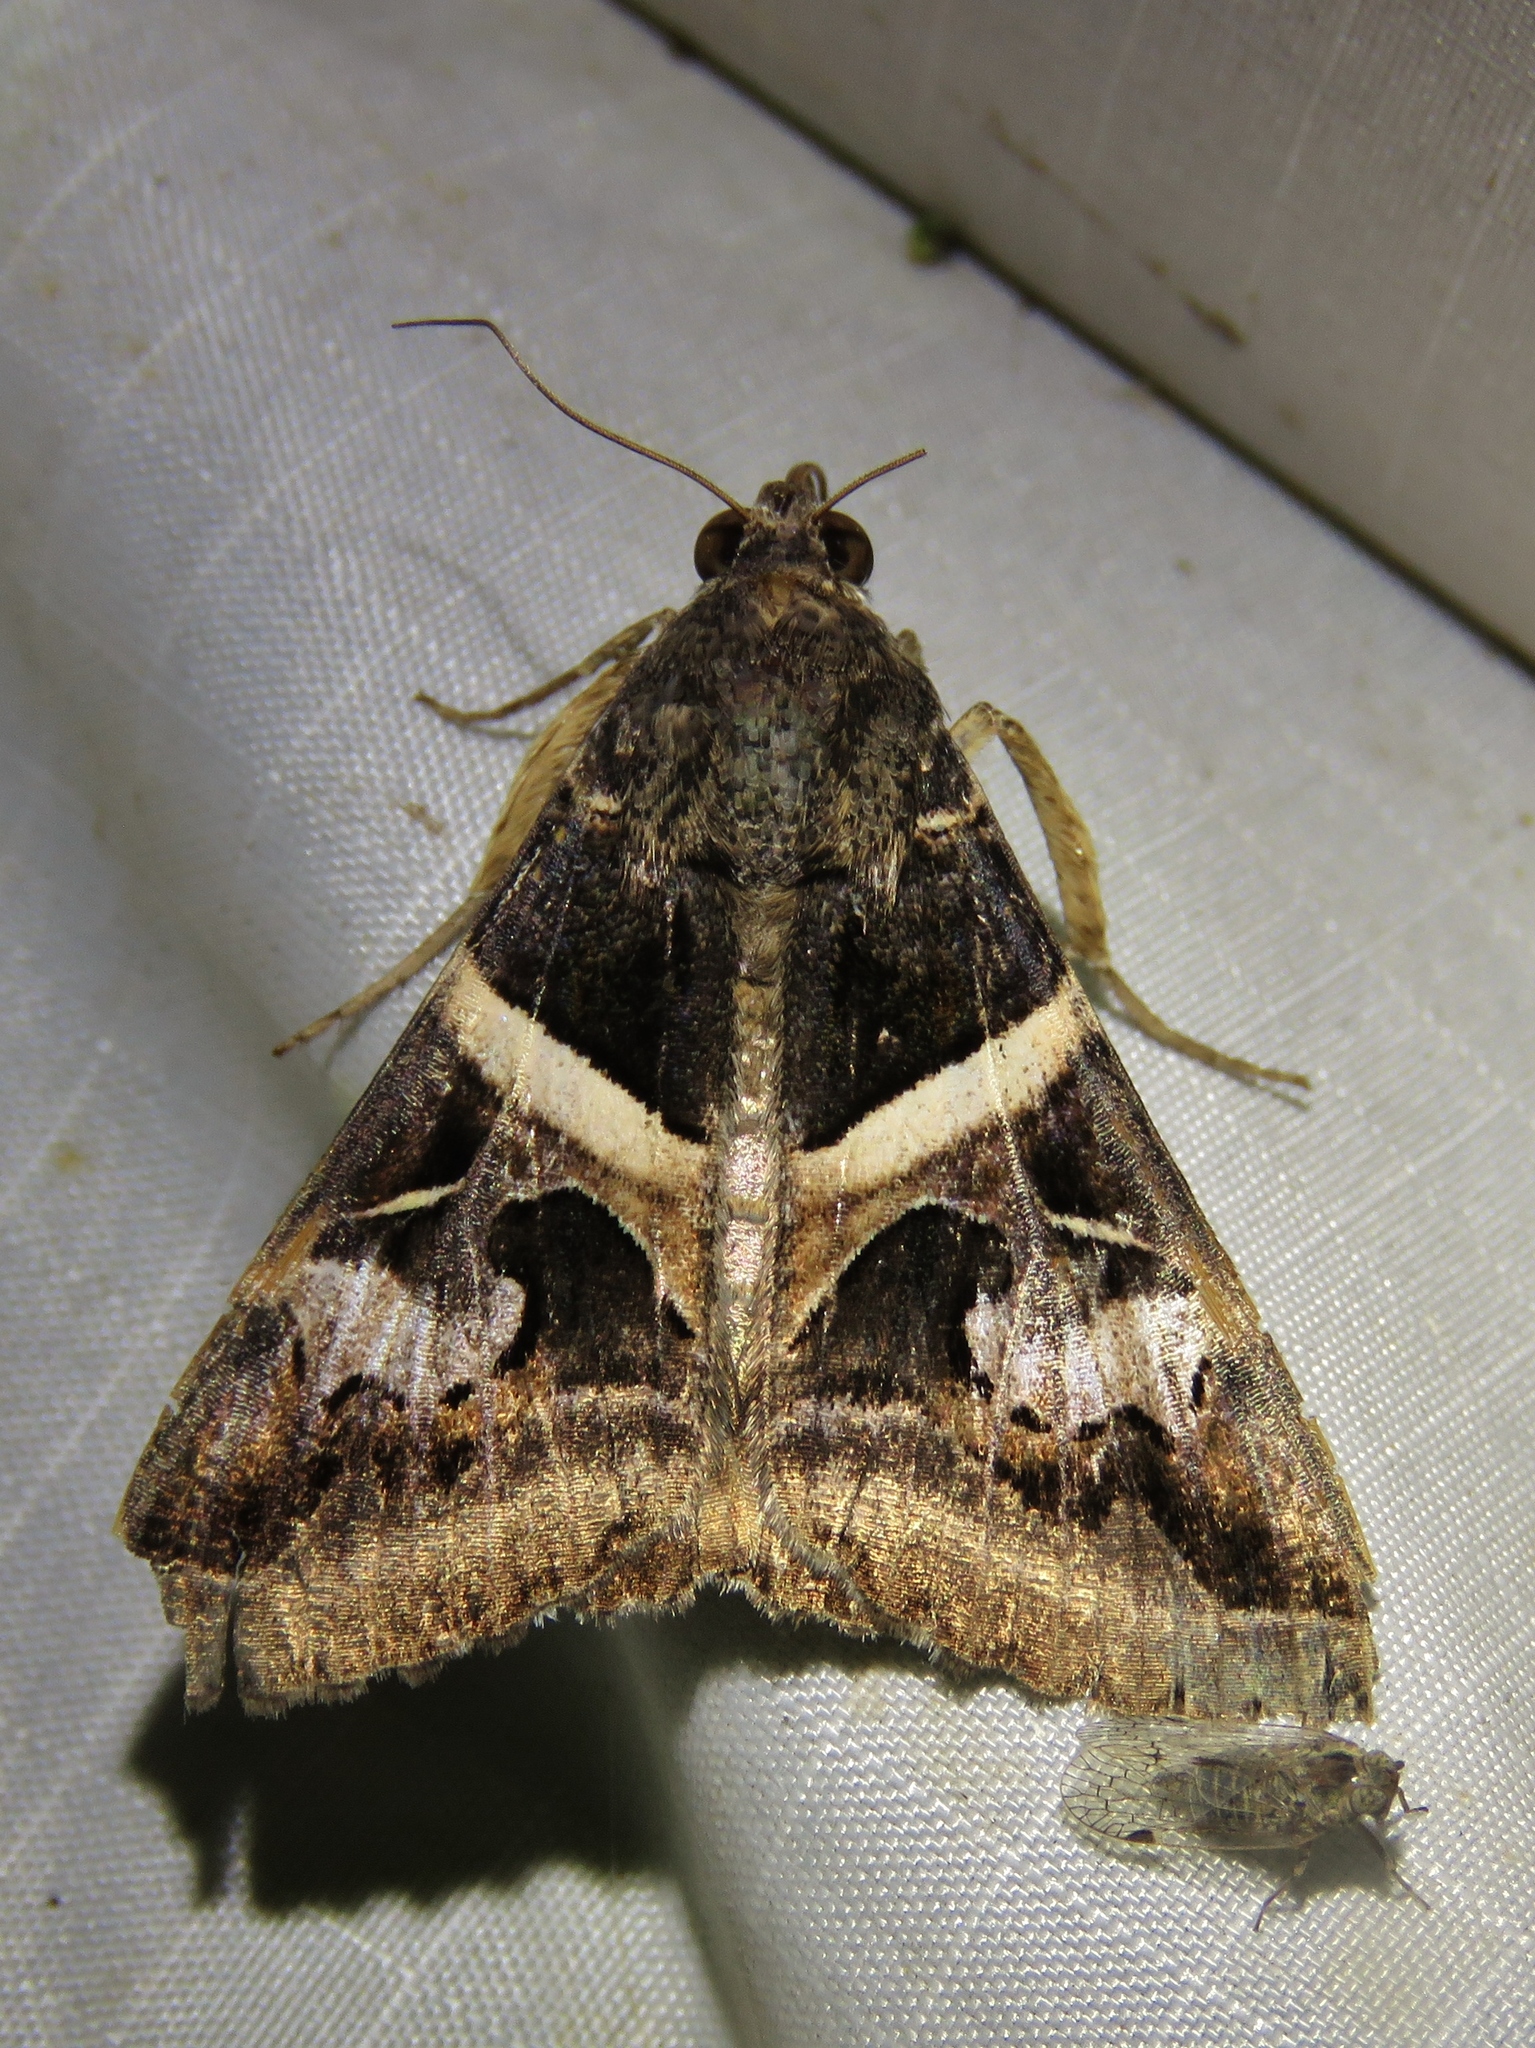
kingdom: Animalia
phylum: Arthropoda
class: Insecta
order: Lepidoptera
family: Erebidae
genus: Melipotis
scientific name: Melipotis indomita
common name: Moth
